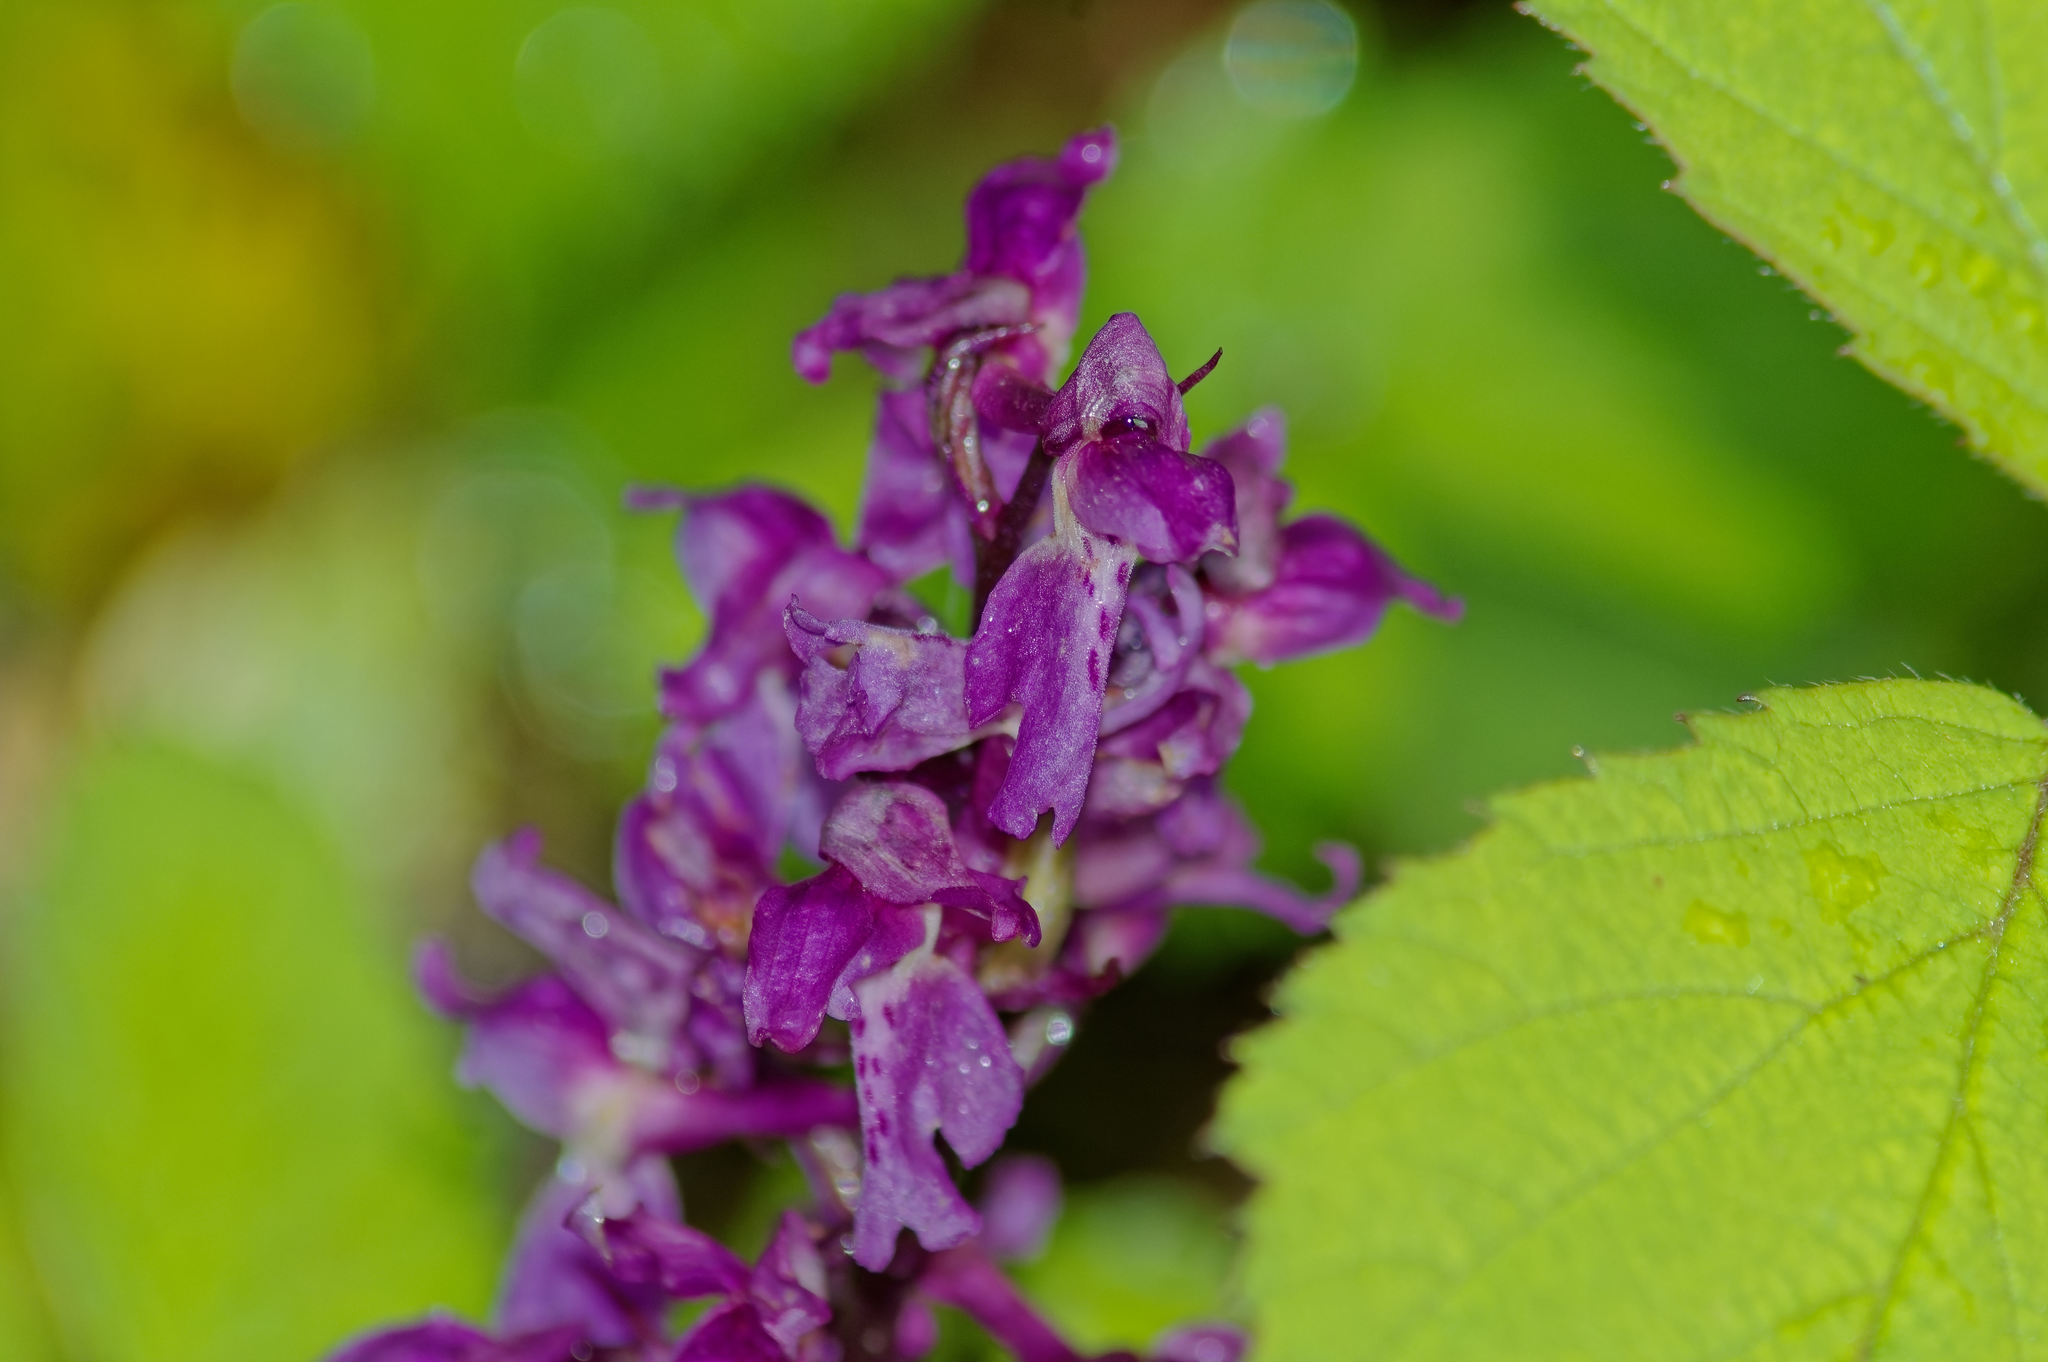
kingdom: Plantae
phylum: Tracheophyta
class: Liliopsida
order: Asparagales
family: Orchidaceae
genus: Orchis
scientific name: Orchis mascula
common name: Early-purple orchid
